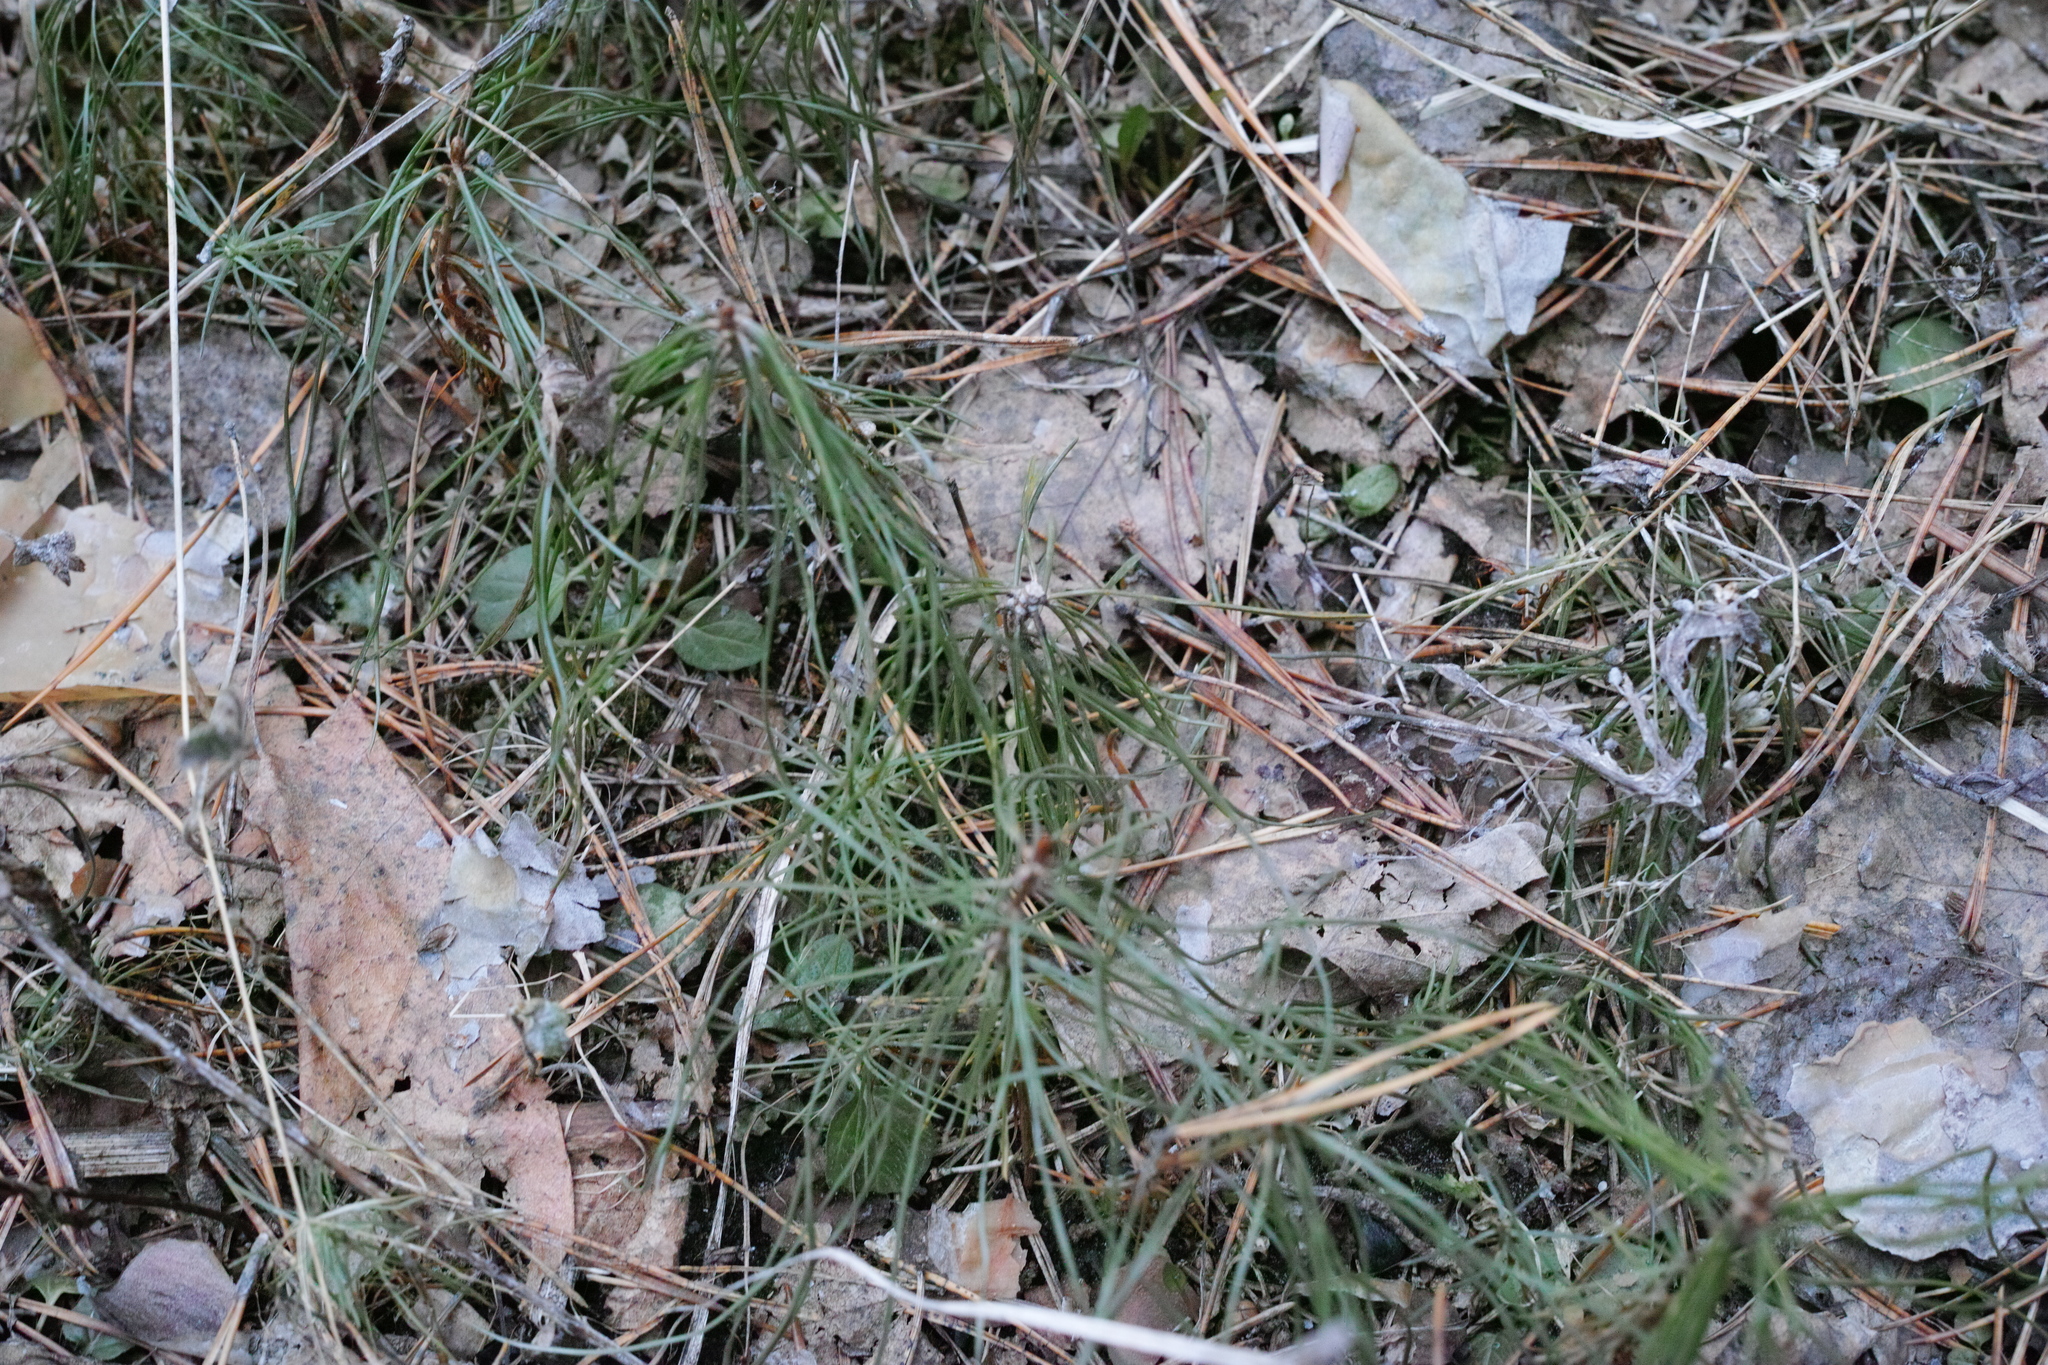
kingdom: Plantae
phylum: Tracheophyta
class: Pinopsida
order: Pinales
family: Pinaceae
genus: Pinus
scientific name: Pinus sylvestris
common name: Scots pine
